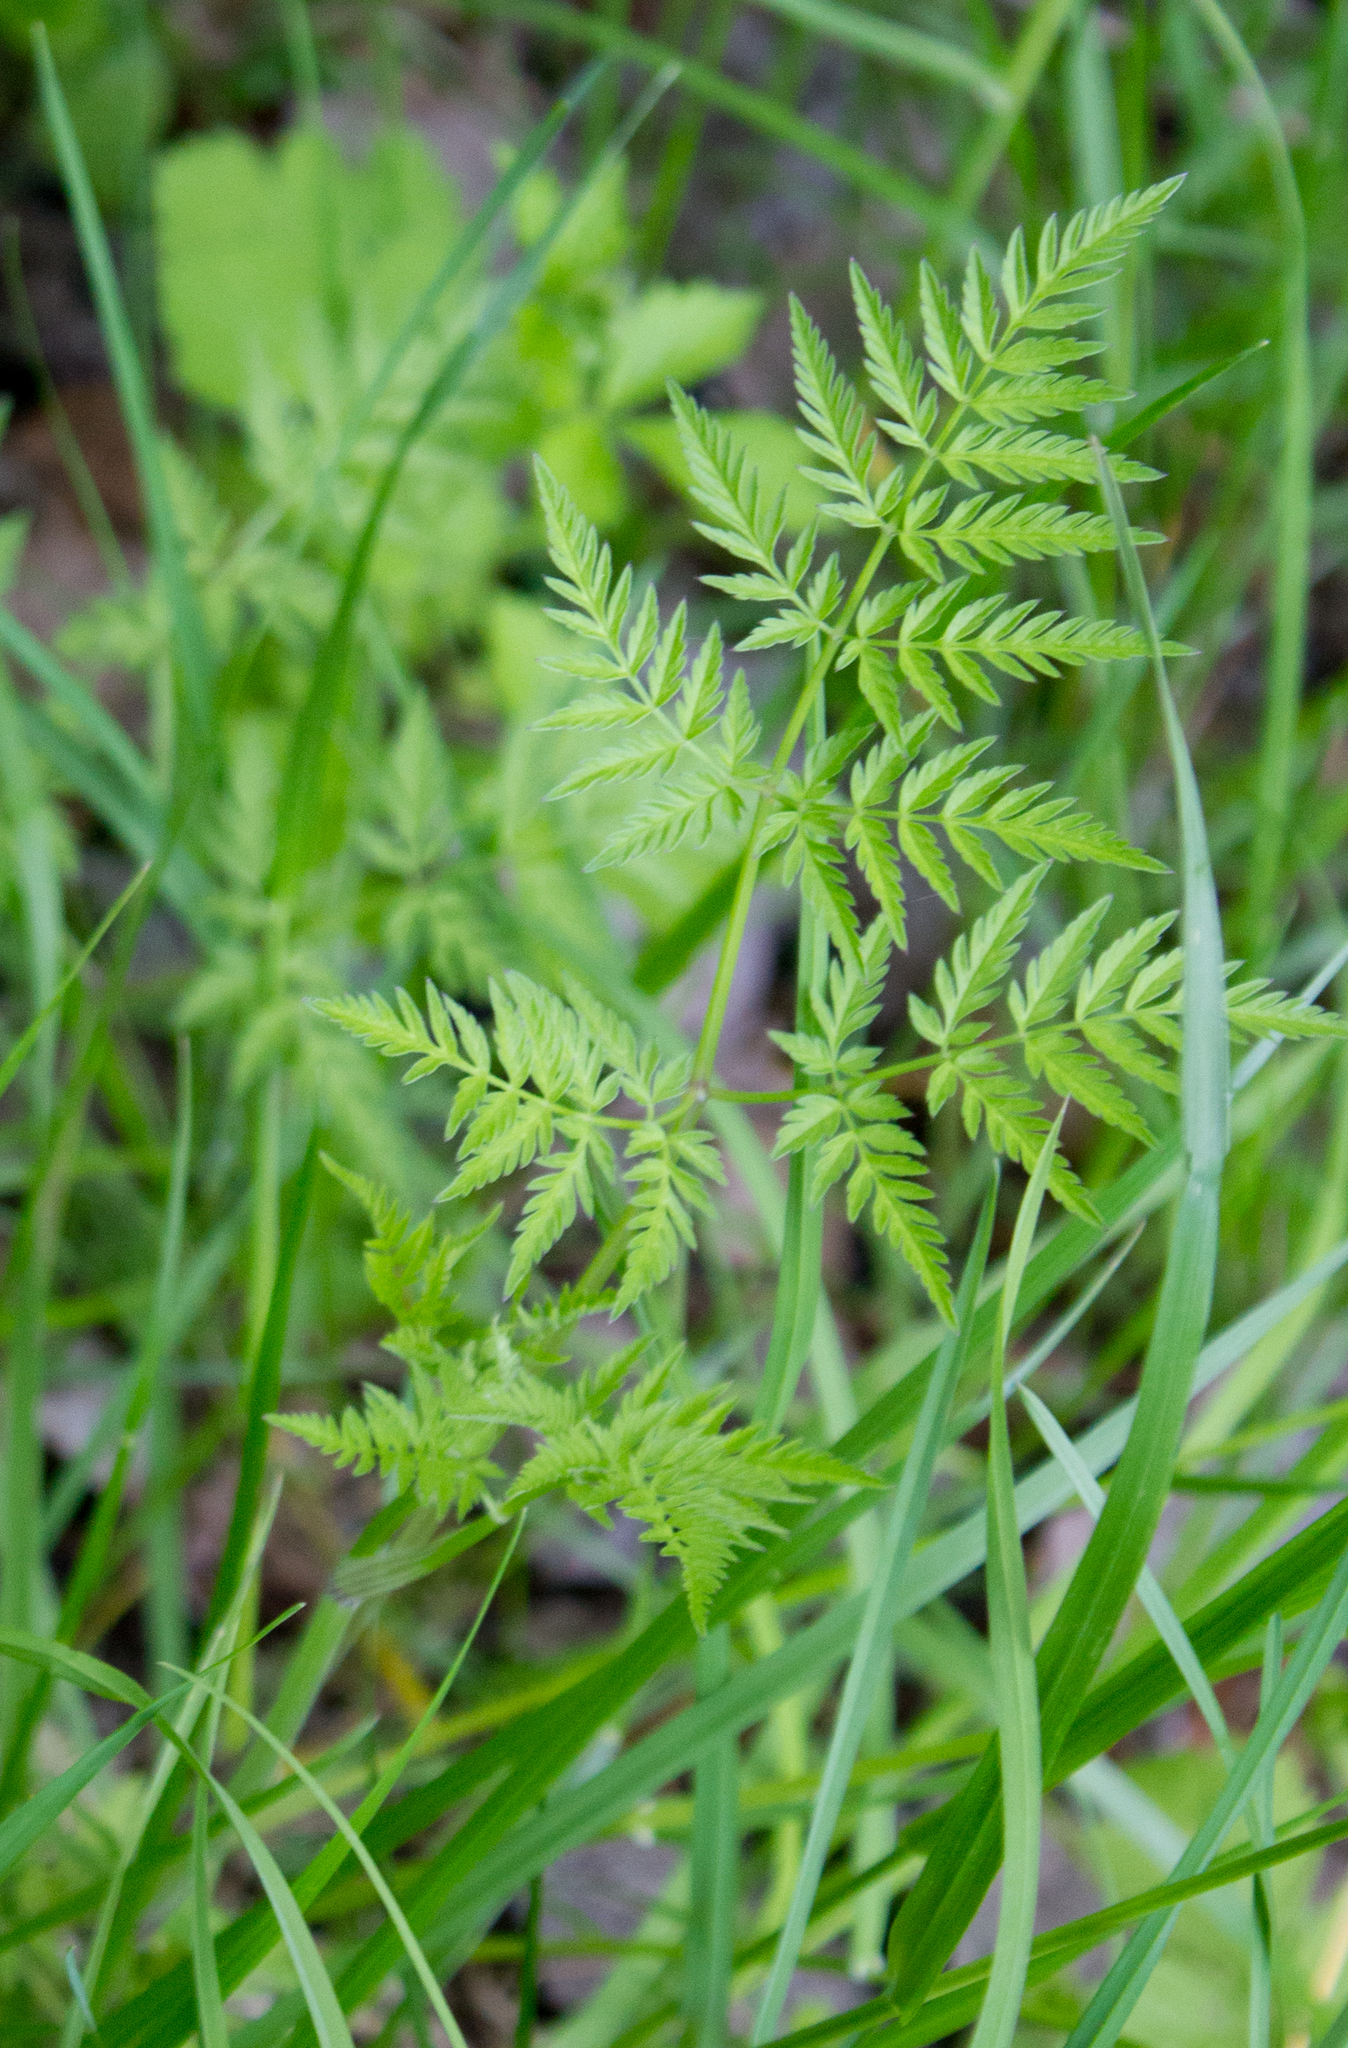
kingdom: Plantae
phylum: Tracheophyta
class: Magnoliopsida
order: Apiales
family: Apiaceae
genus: Anthriscus
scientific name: Anthriscus sylvestris
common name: Cow parsley
